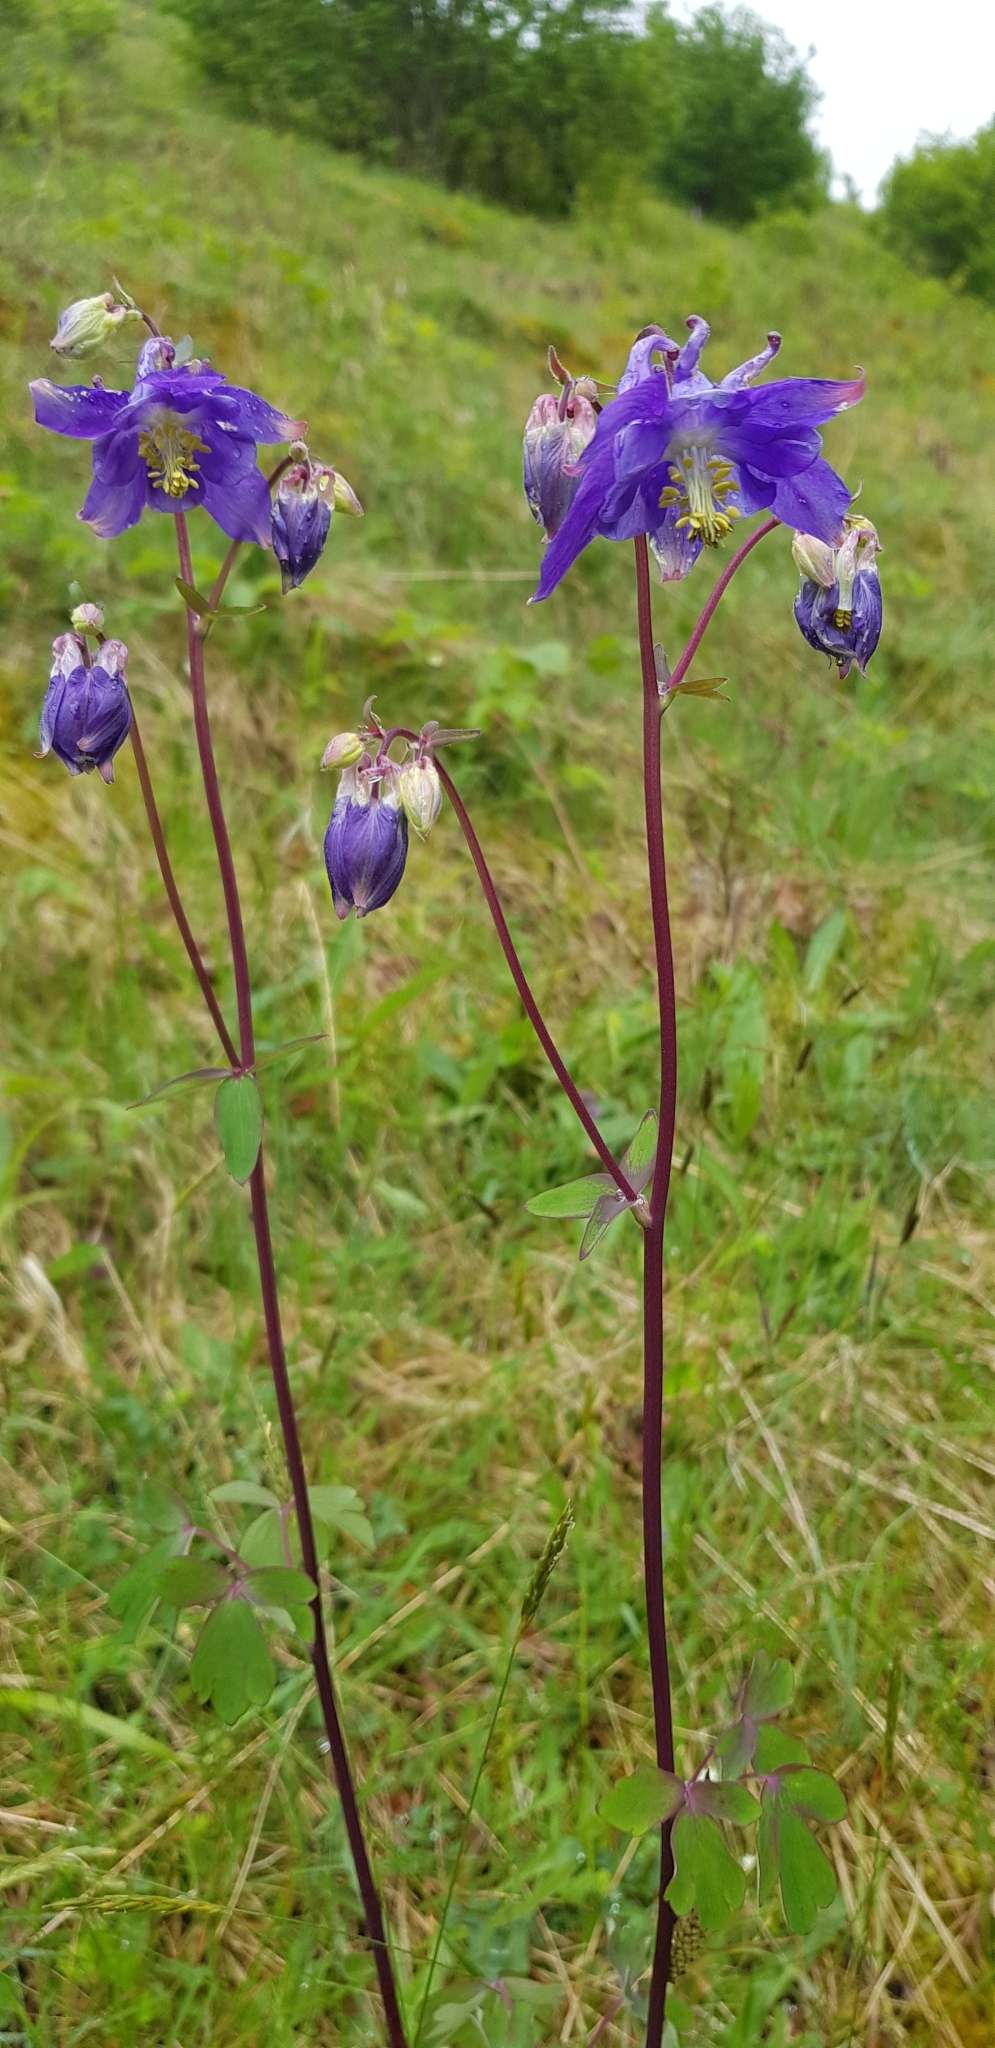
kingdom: Plantae
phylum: Tracheophyta
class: Magnoliopsida
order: Ranunculales
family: Ranunculaceae
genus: Aquilegia
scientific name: Aquilegia vulgaris
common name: Columbine
